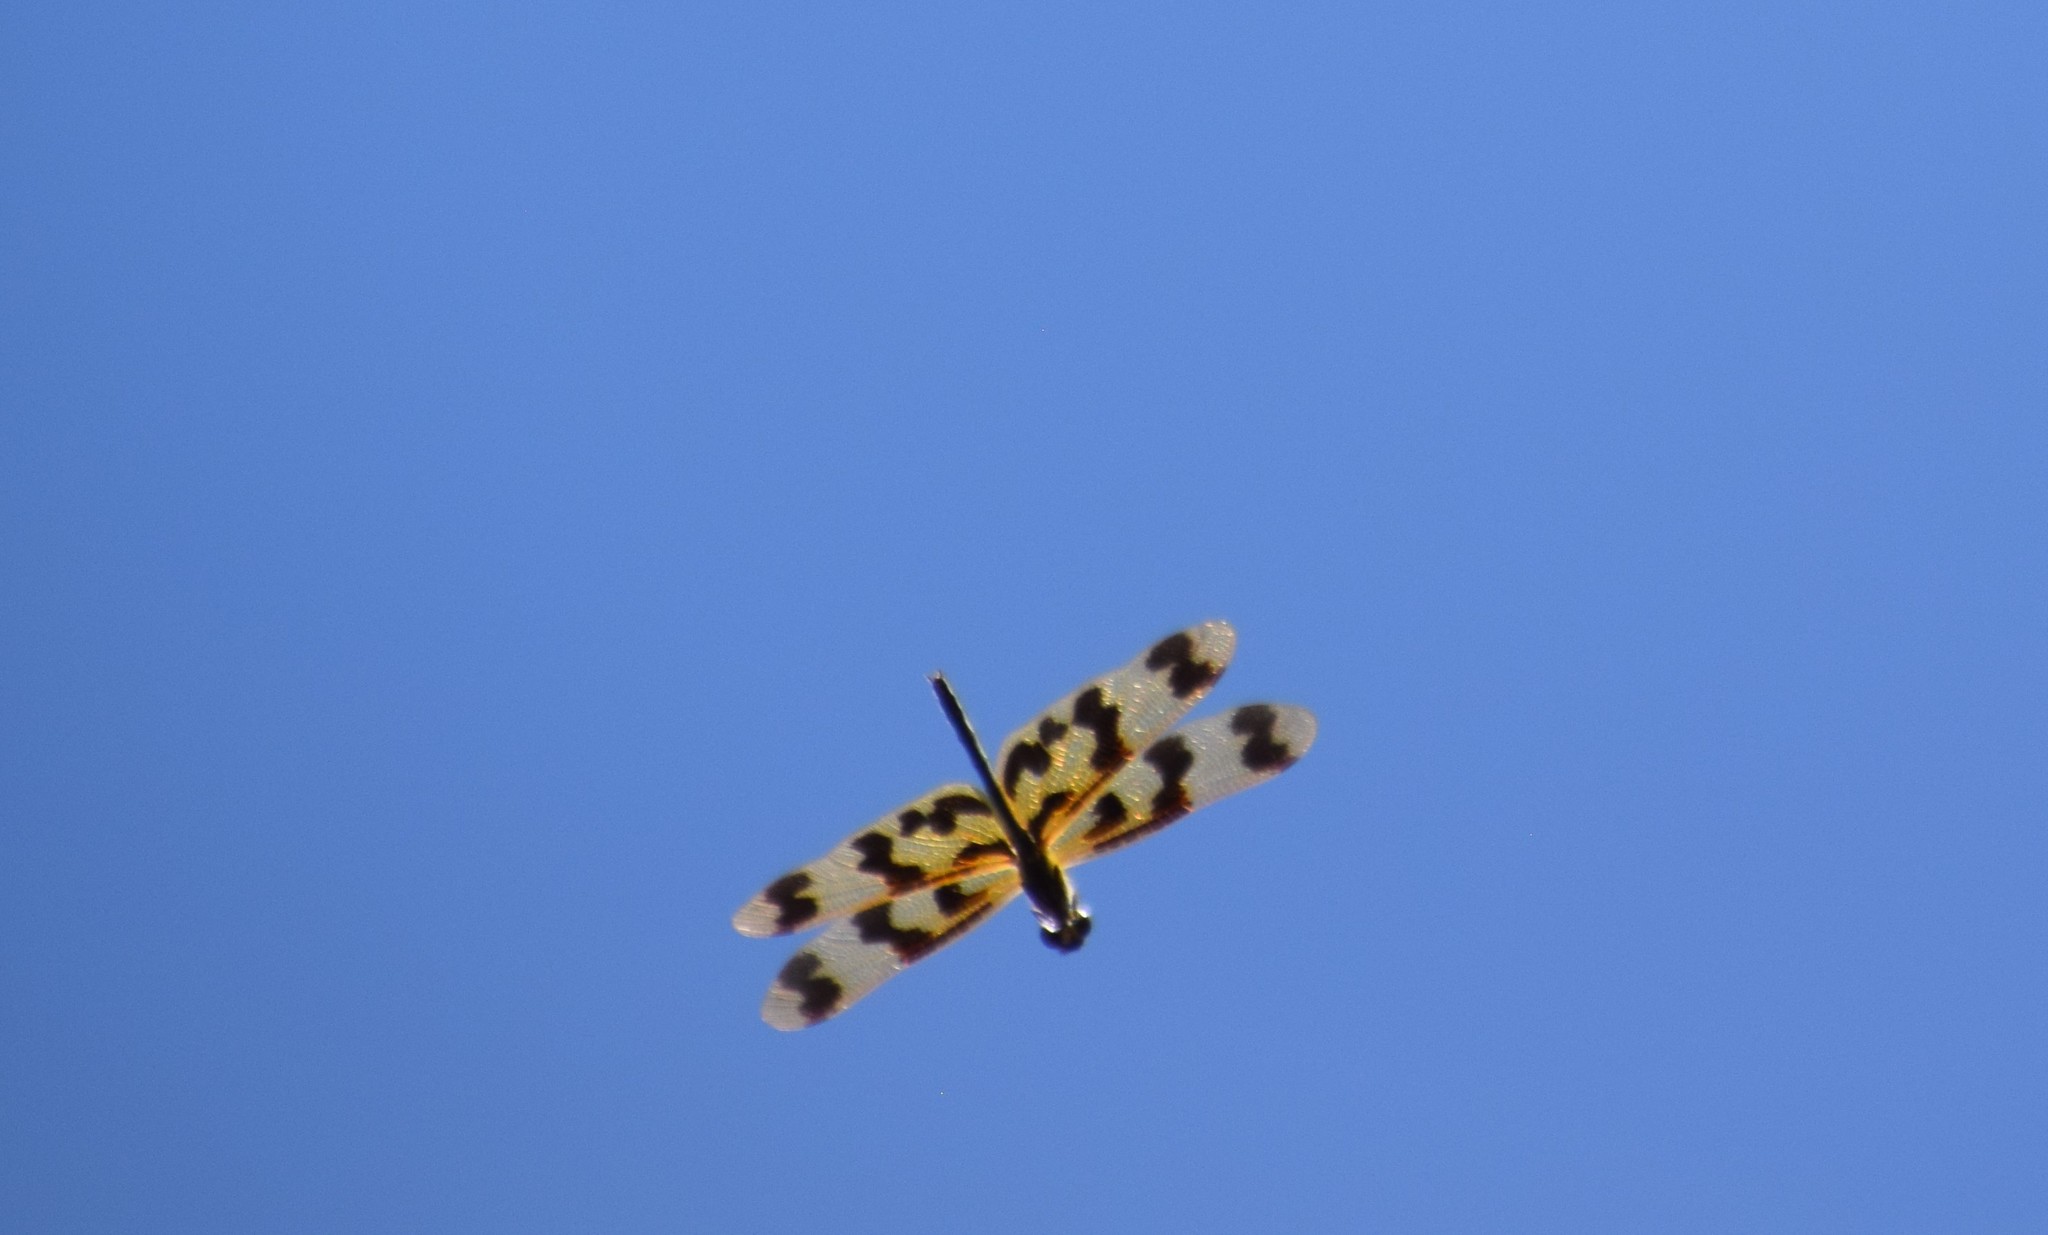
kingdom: Animalia
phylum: Arthropoda
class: Insecta
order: Odonata
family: Libellulidae
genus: Rhyothemis
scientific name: Rhyothemis graphiptera
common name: Graphic flutterer
